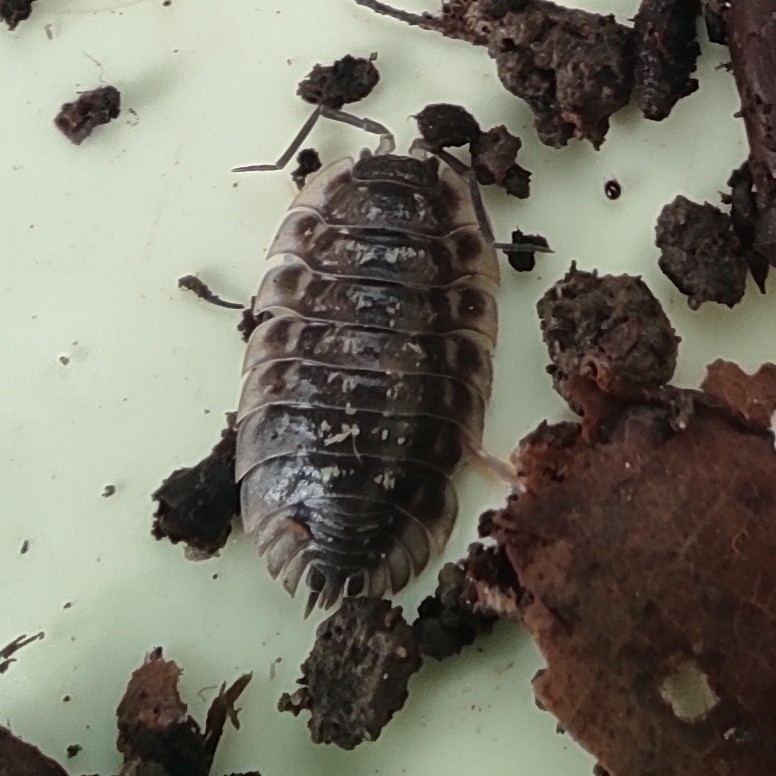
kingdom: Animalia
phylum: Arthropoda
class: Malacostraca
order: Isopoda
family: Oniscidae
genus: Oniscus
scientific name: Oniscus asellus
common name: Common shiny woodlouse
